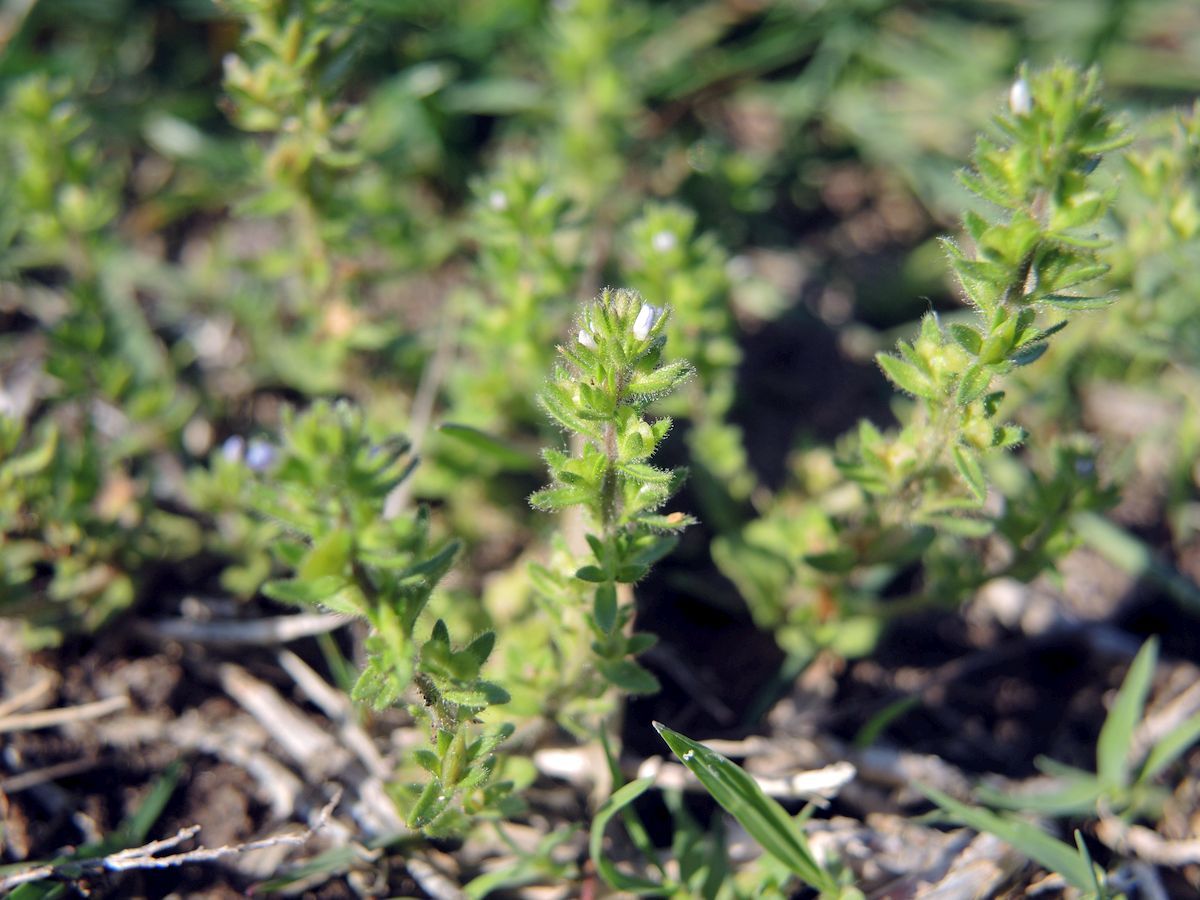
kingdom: Plantae
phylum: Tracheophyta
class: Magnoliopsida
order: Lamiales
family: Plantaginaceae
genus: Veronica
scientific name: Veronica arvensis
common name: Corn speedwell
